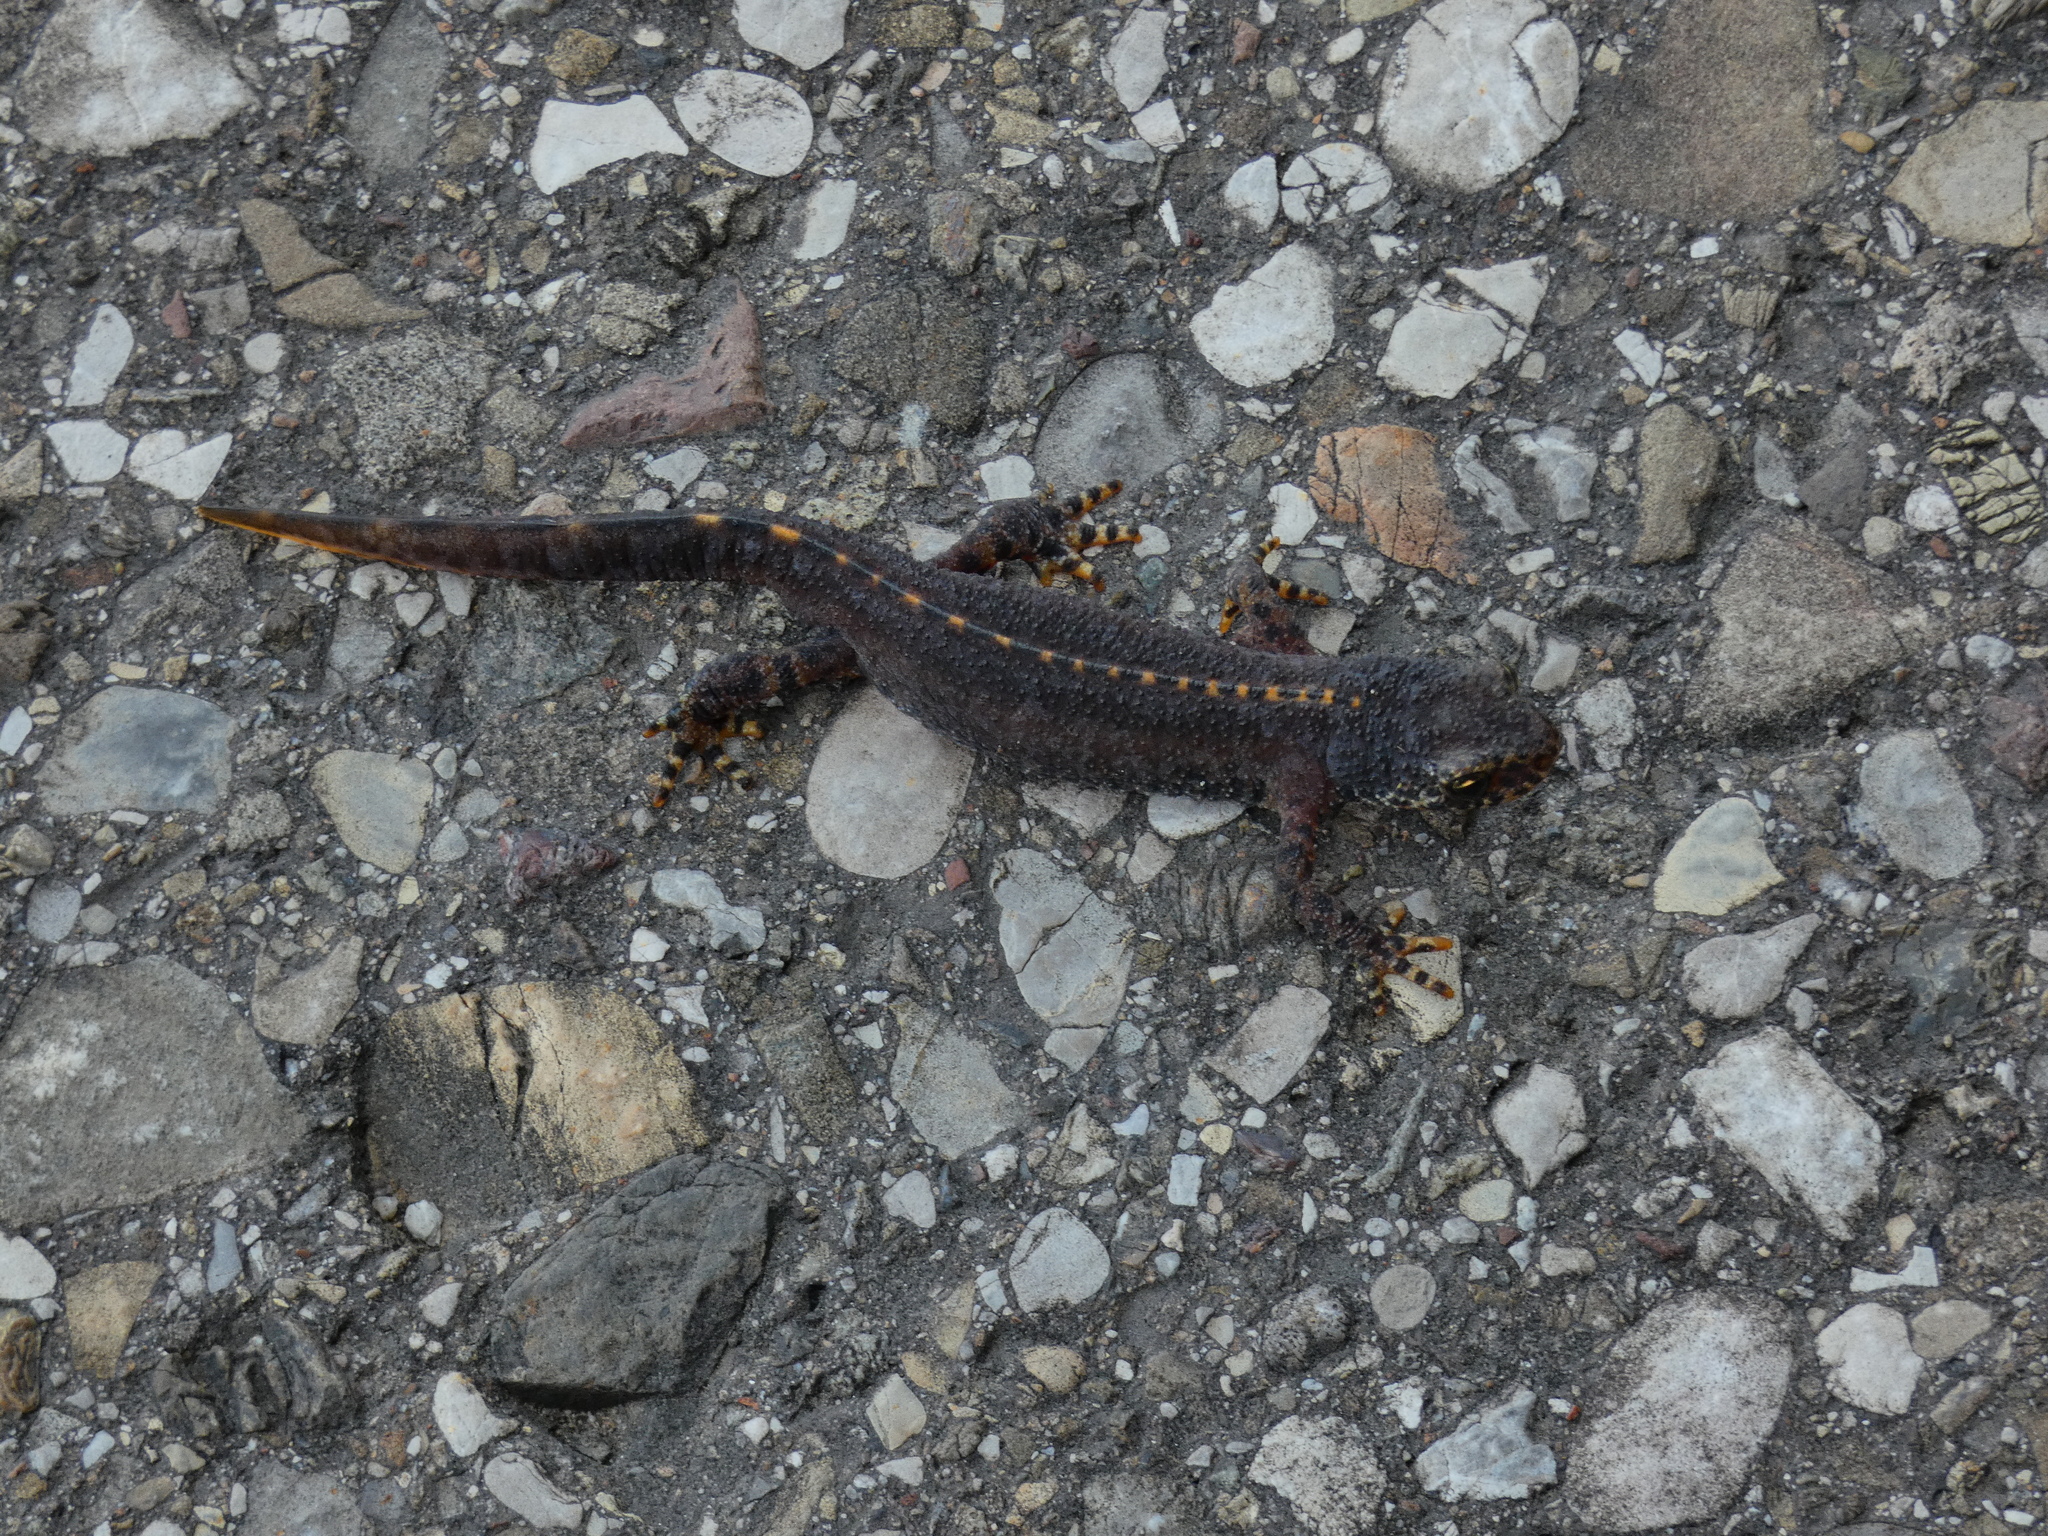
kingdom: Animalia
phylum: Chordata
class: Amphibia
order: Caudata
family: Salamandridae
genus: Ichthyosaura
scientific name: Ichthyosaura alpestris
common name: Alpine newt
